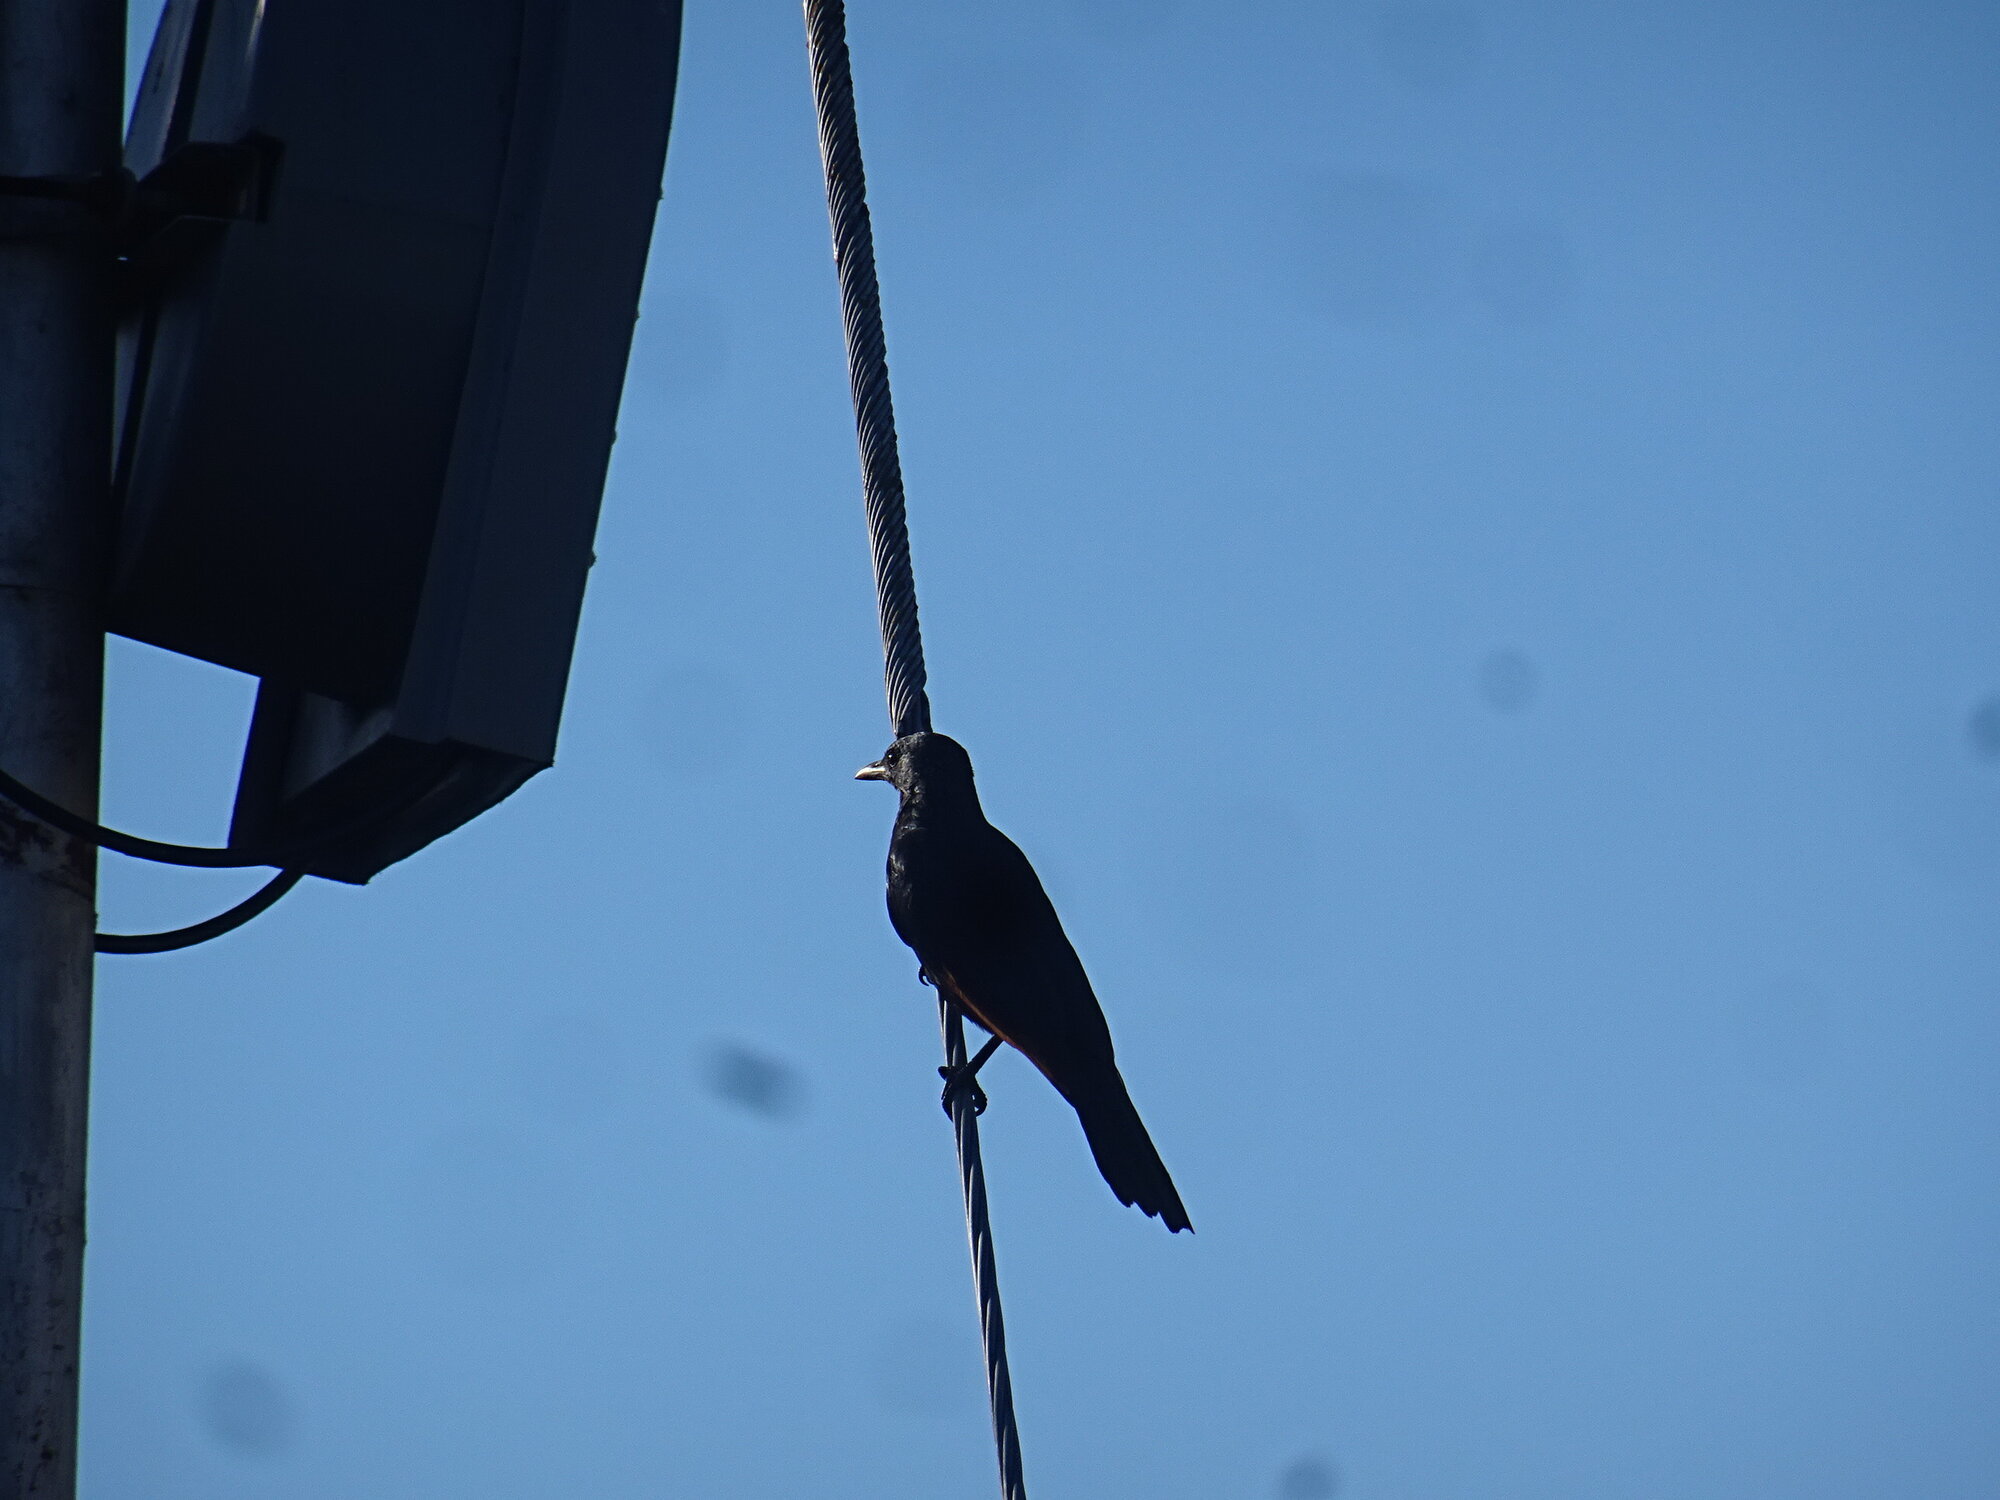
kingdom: Animalia
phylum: Chordata
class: Aves
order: Passeriformes
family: Sturnidae
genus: Onychognathus
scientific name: Onychognathus morio
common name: Red-winged starling
